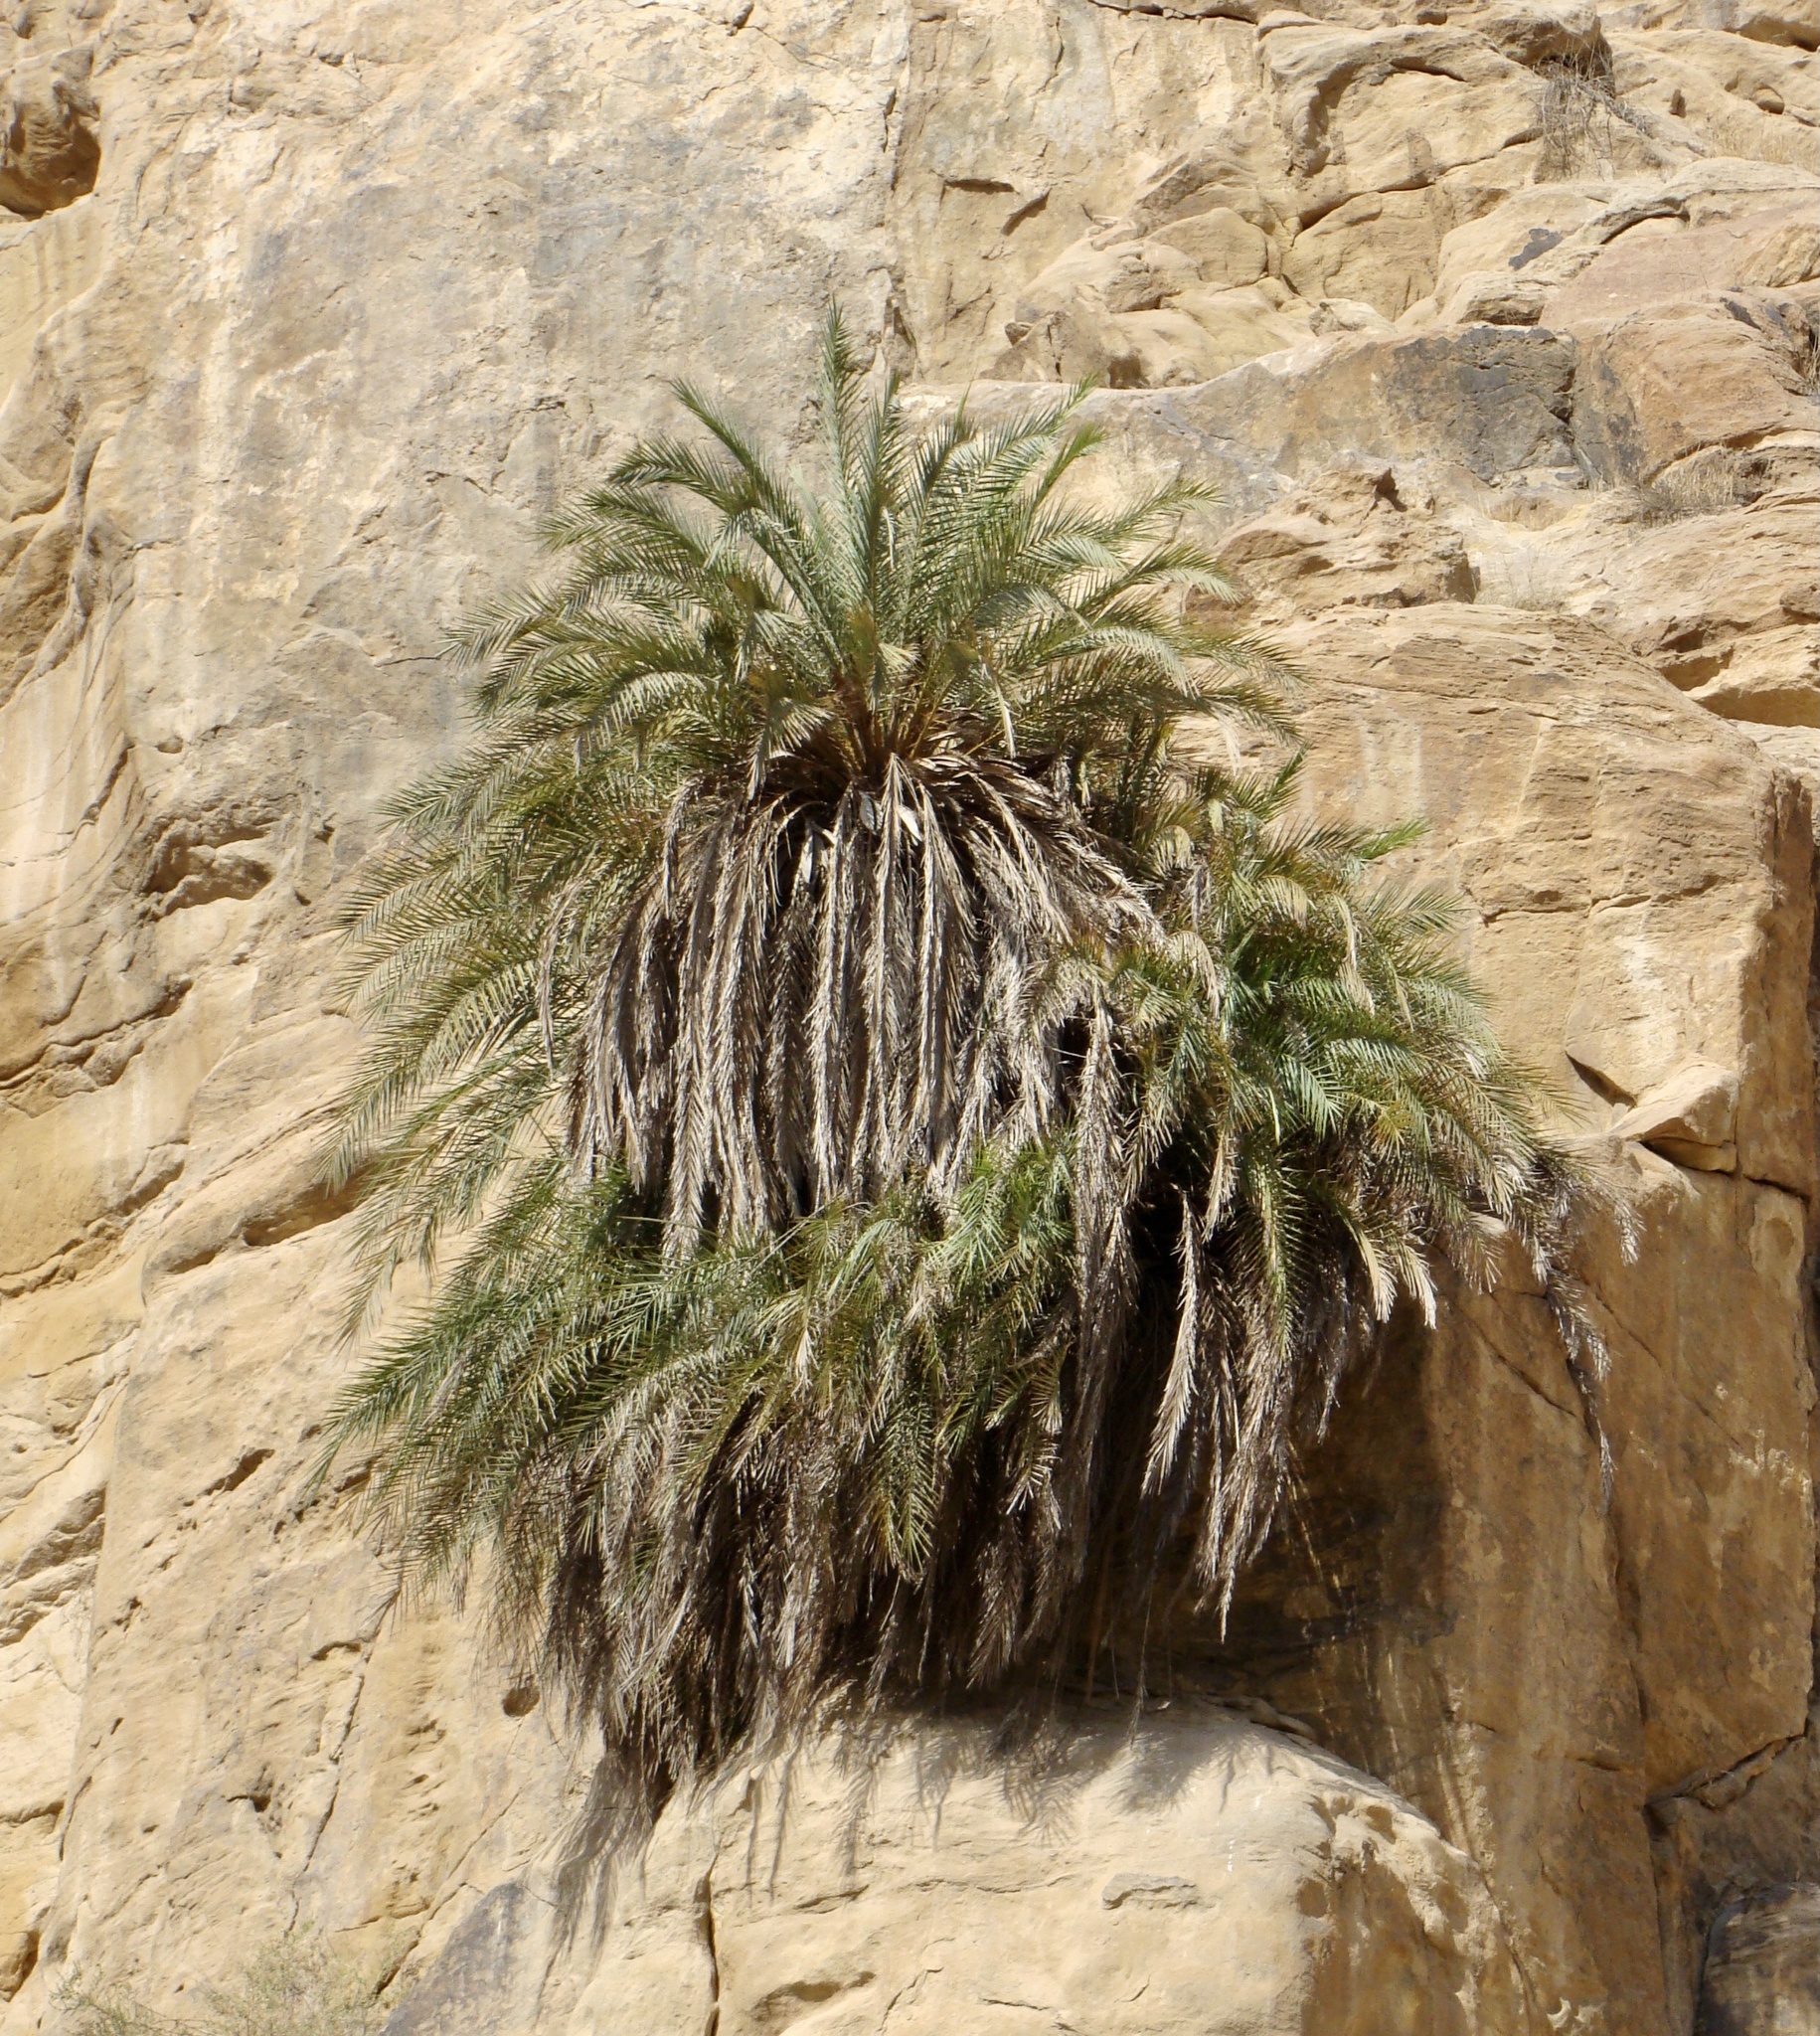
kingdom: Plantae
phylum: Tracheophyta
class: Liliopsida
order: Arecales
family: Arecaceae
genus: Phoenix
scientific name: Phoenix dactylifera
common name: Date palm
